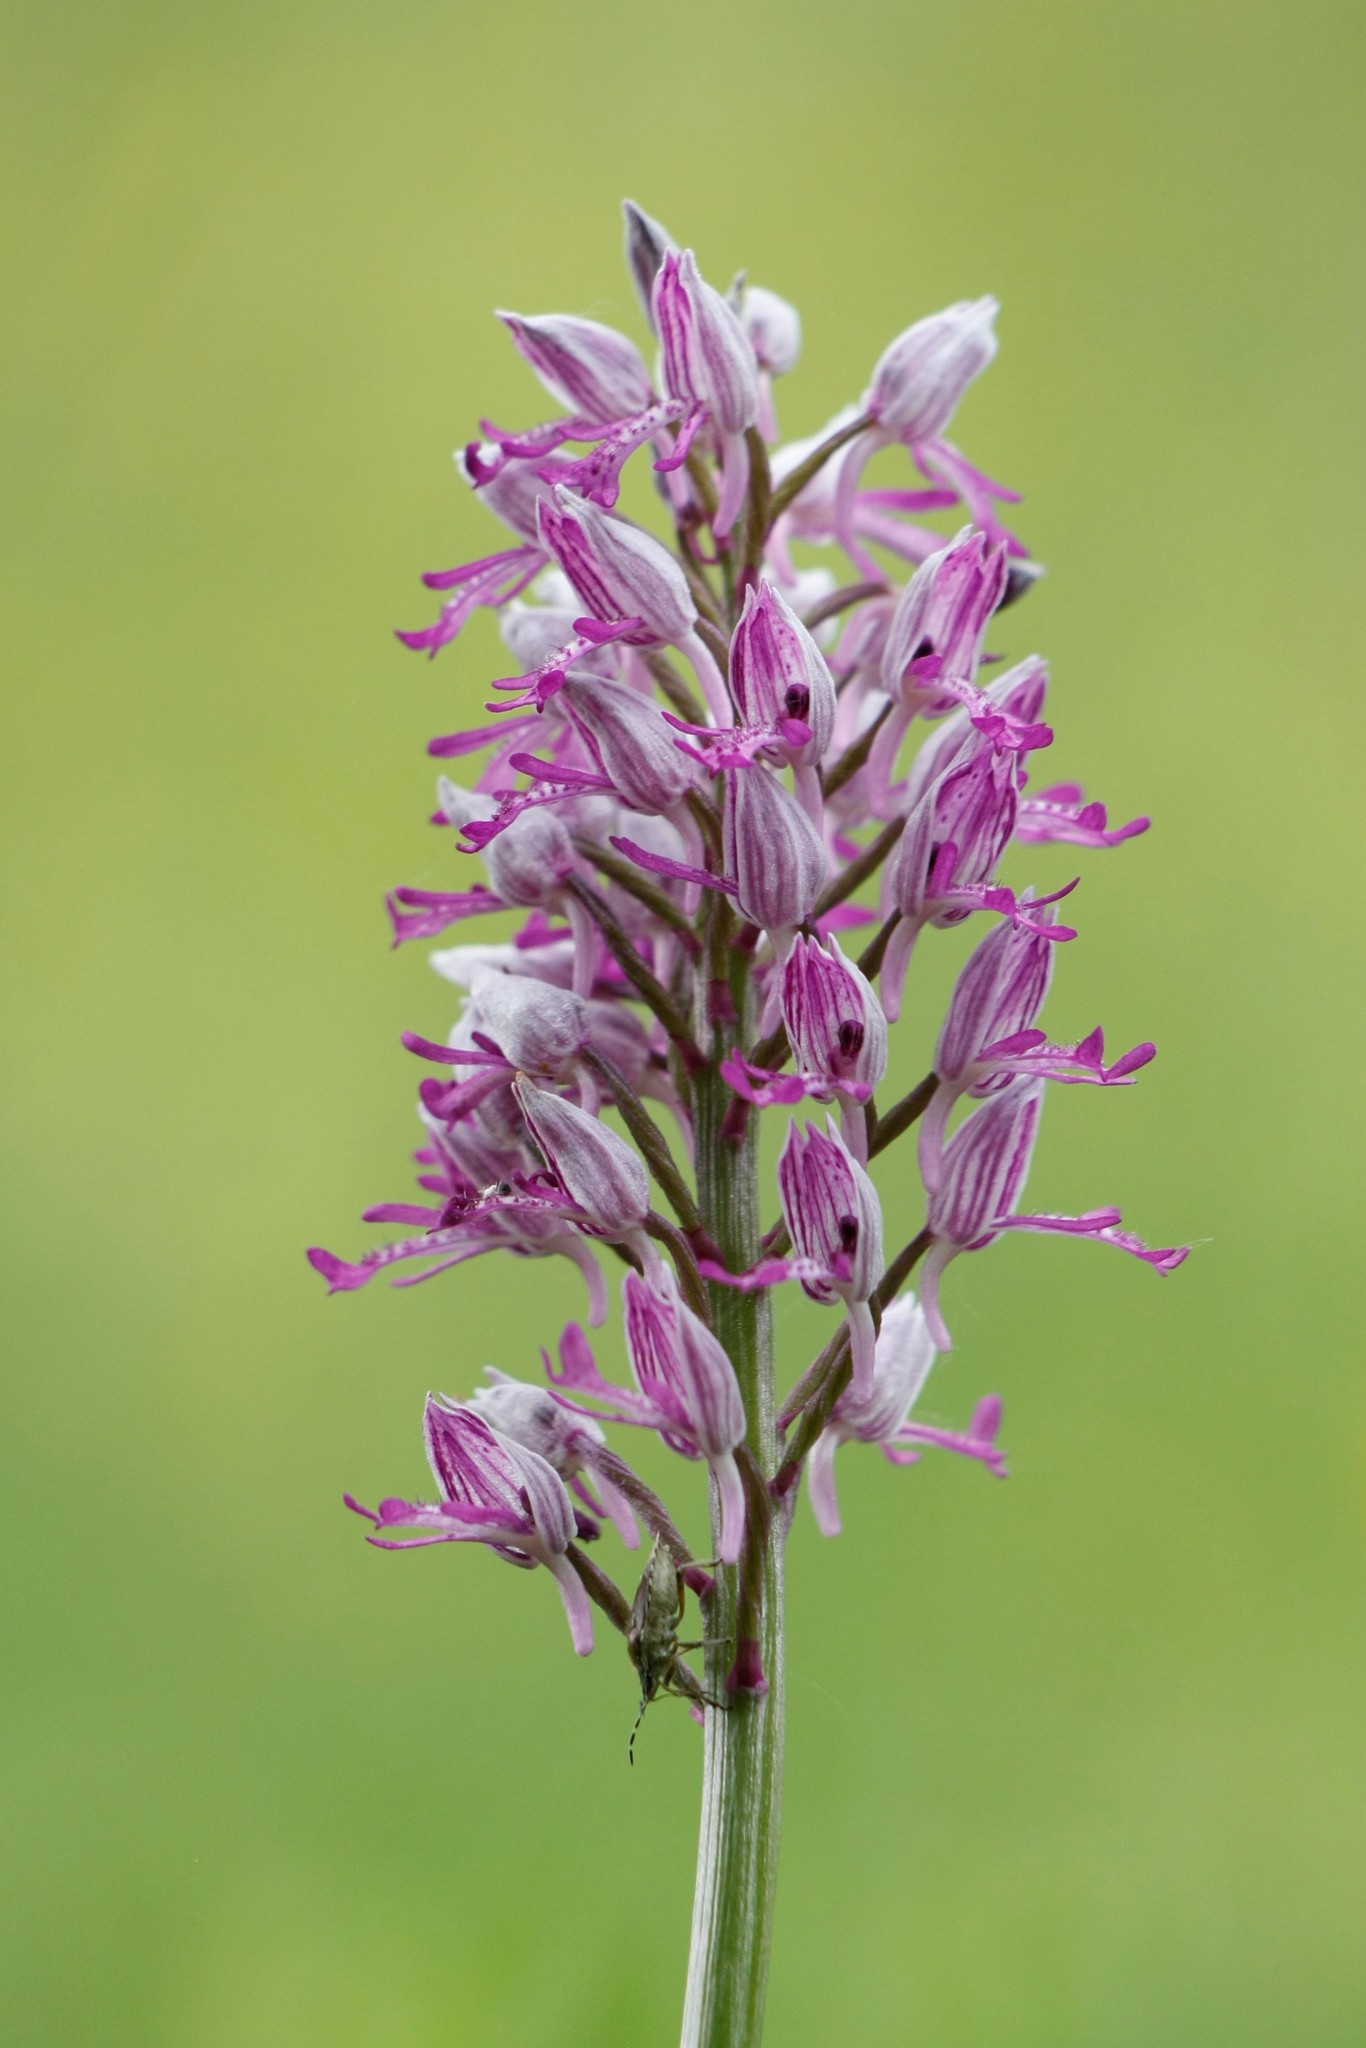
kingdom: Plantae
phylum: Tracheophyta
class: Liliopsida
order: Asparagales
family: Orchidaceae
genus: Orchis
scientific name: Orchis militaris
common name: Military orchid
